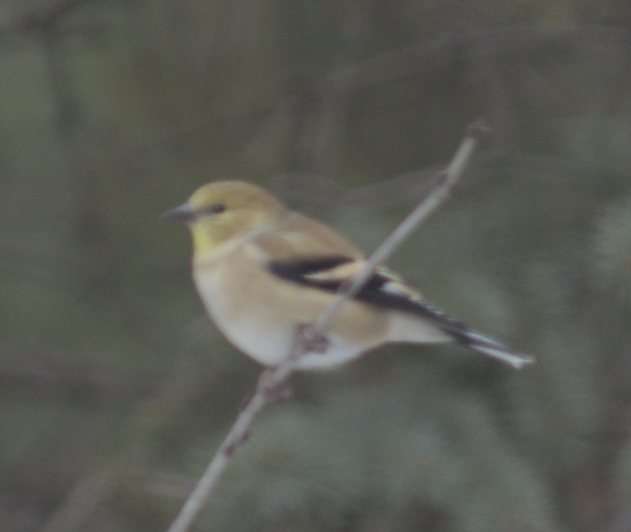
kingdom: Animalia
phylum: Chordata
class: Aves
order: Passeriformes
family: Fringillidae
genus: Spinus
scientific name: Spinus tristis
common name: American goldfinch
